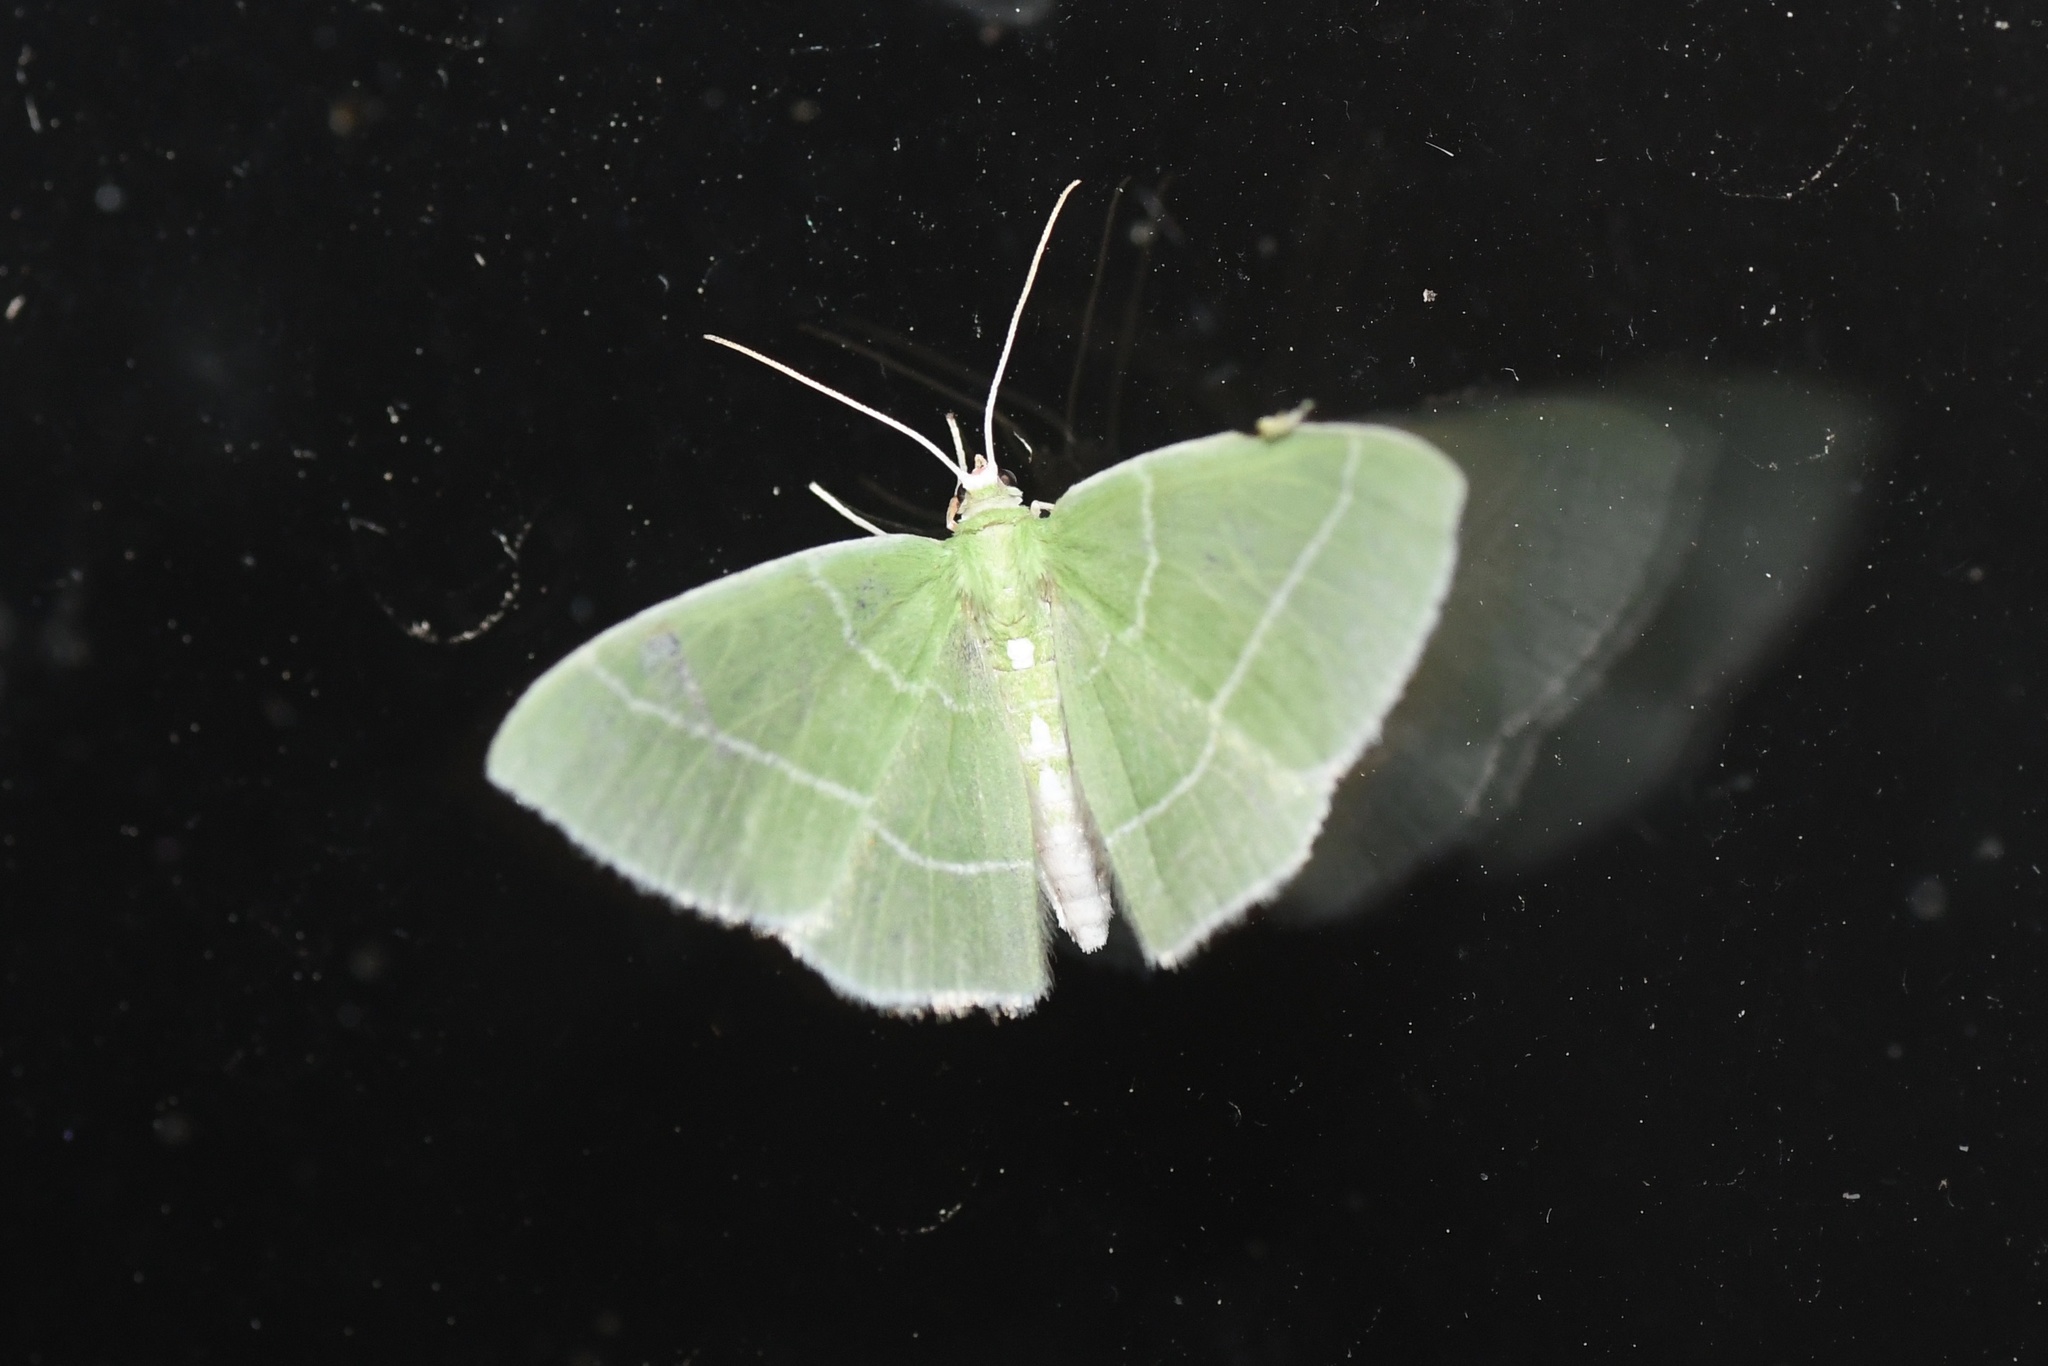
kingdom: Animalia
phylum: Arthropoda
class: Insecta
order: Lepidoptera
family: Geometridae
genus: Nemoria
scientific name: Nemoria mimosaria
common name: White-fringed emerald
